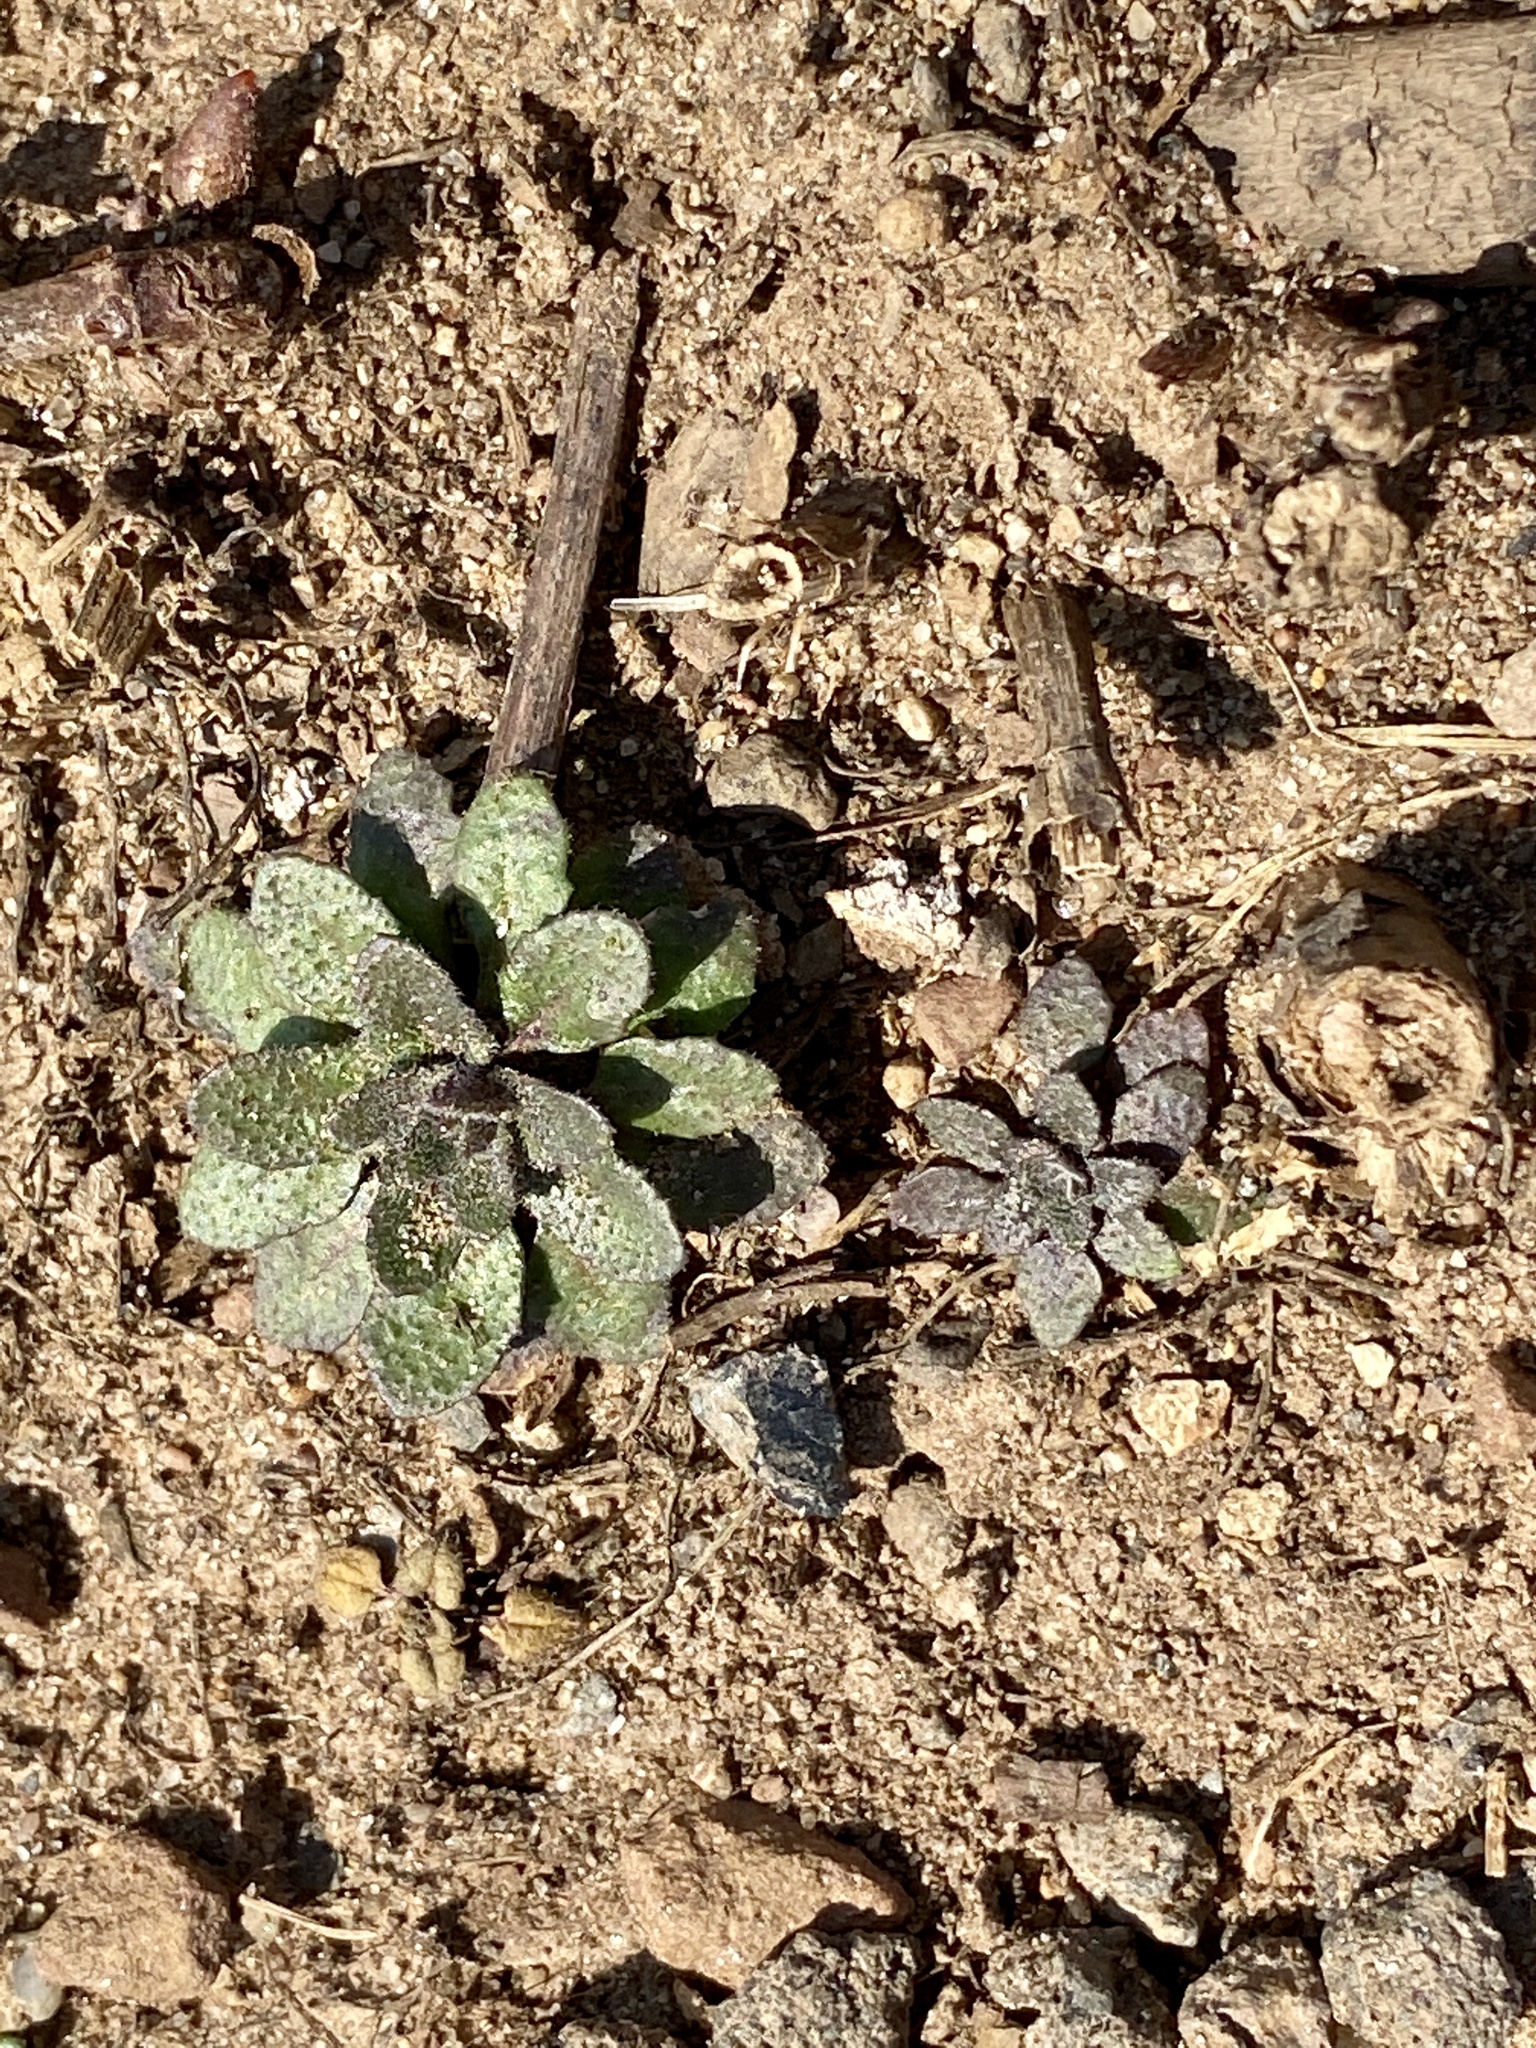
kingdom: Plantae
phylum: Tracheophyta
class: Magnoliopsida
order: Brassicales
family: Brassicaceae
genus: Draba
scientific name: Draba verna
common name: Spring draba
